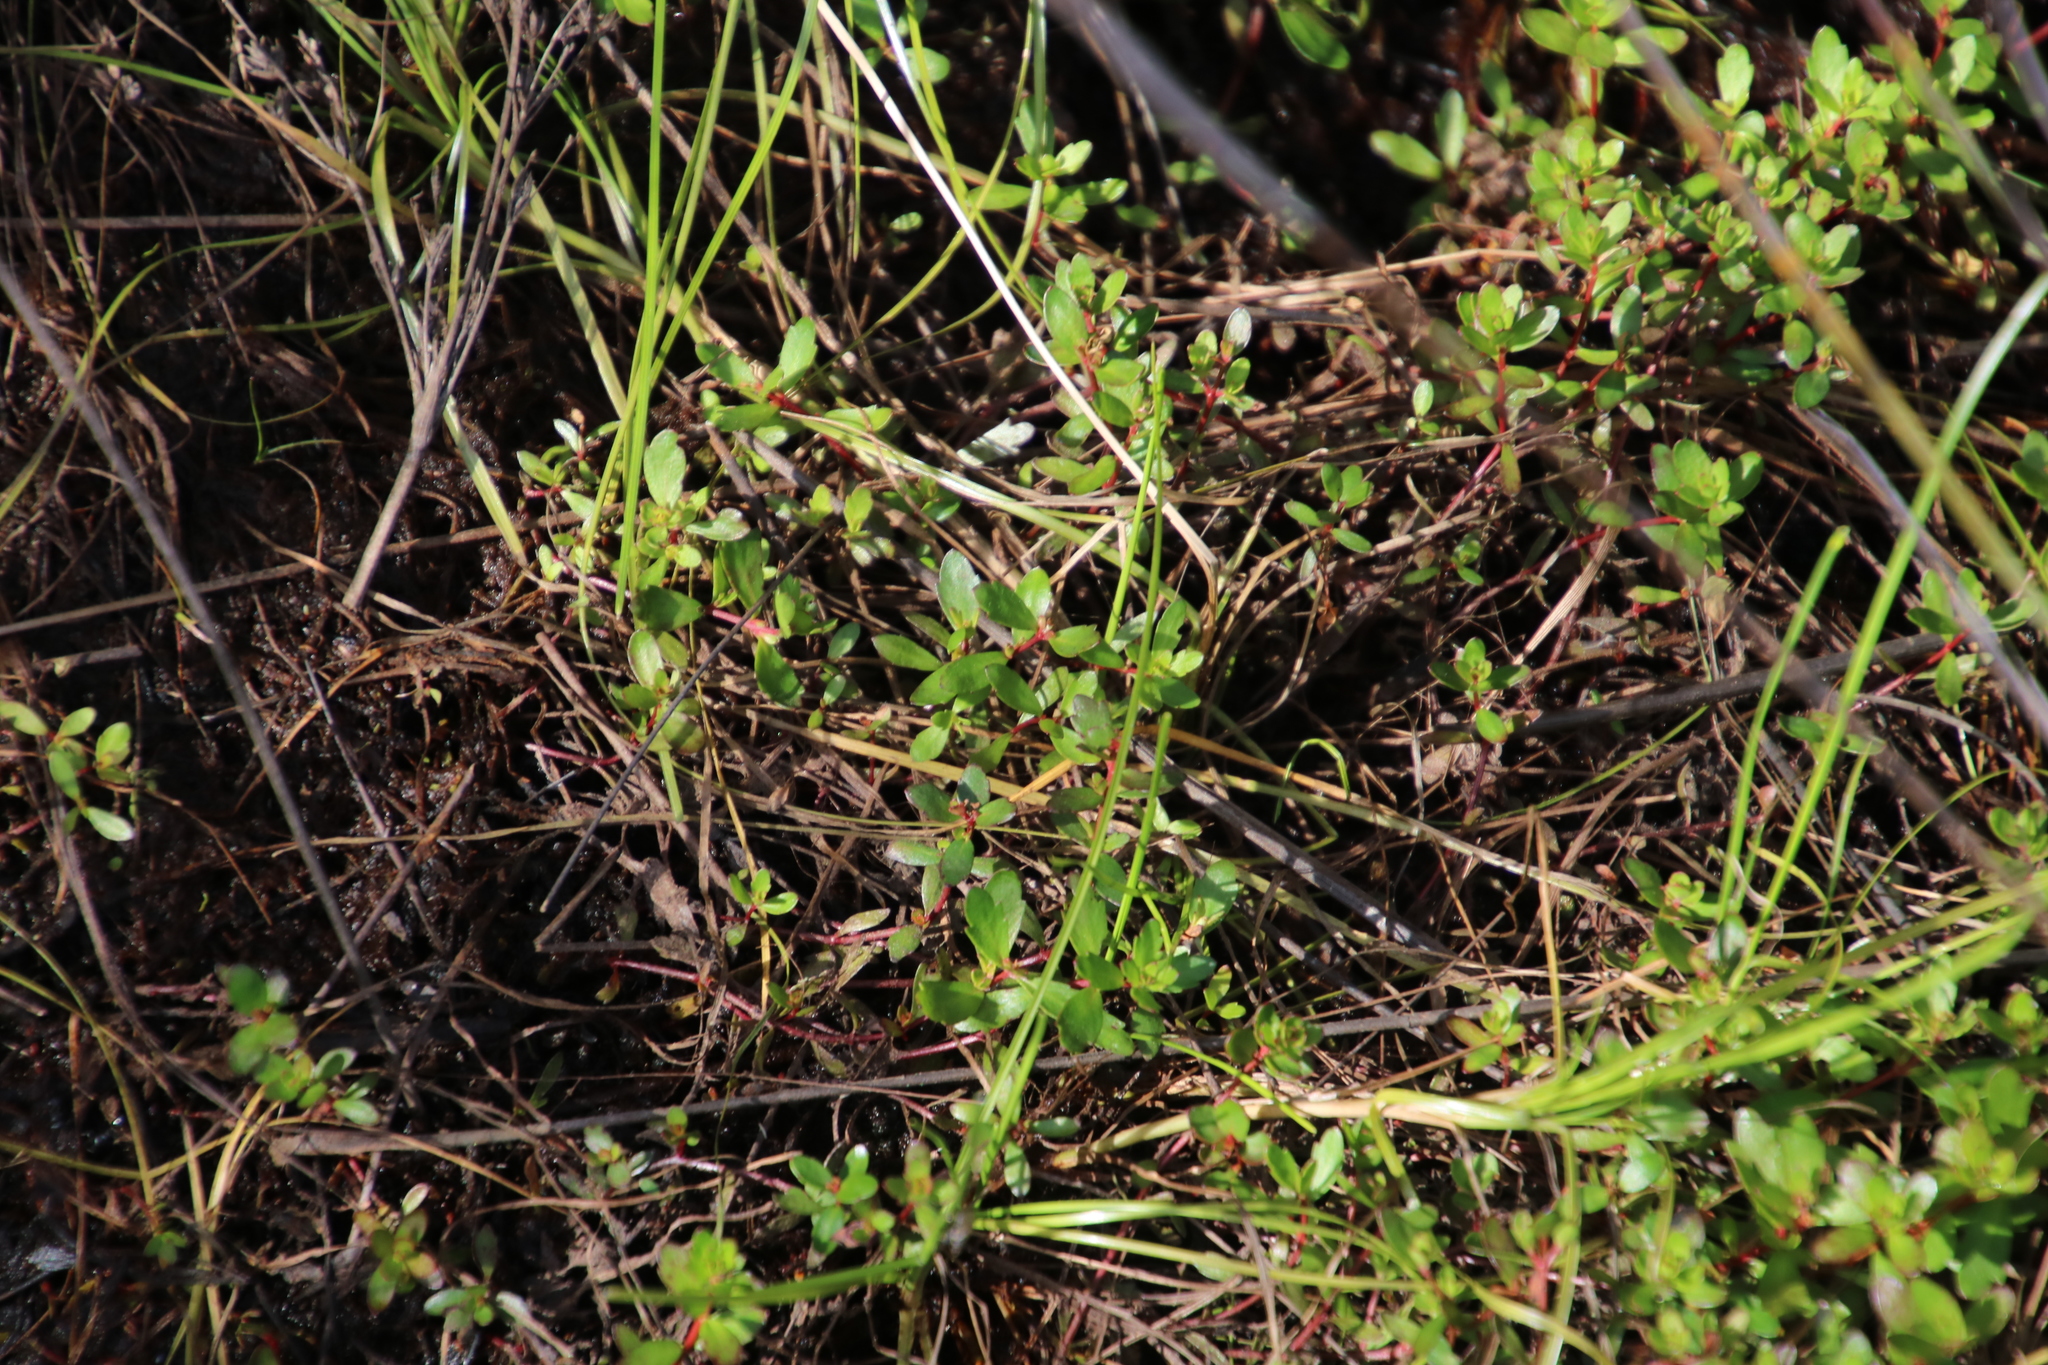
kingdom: Plantae
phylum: Tracheophyta
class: Magnoliopsida
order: Saxifragales
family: Haloragaceae
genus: Laurembergia
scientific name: Laurembergia repens
